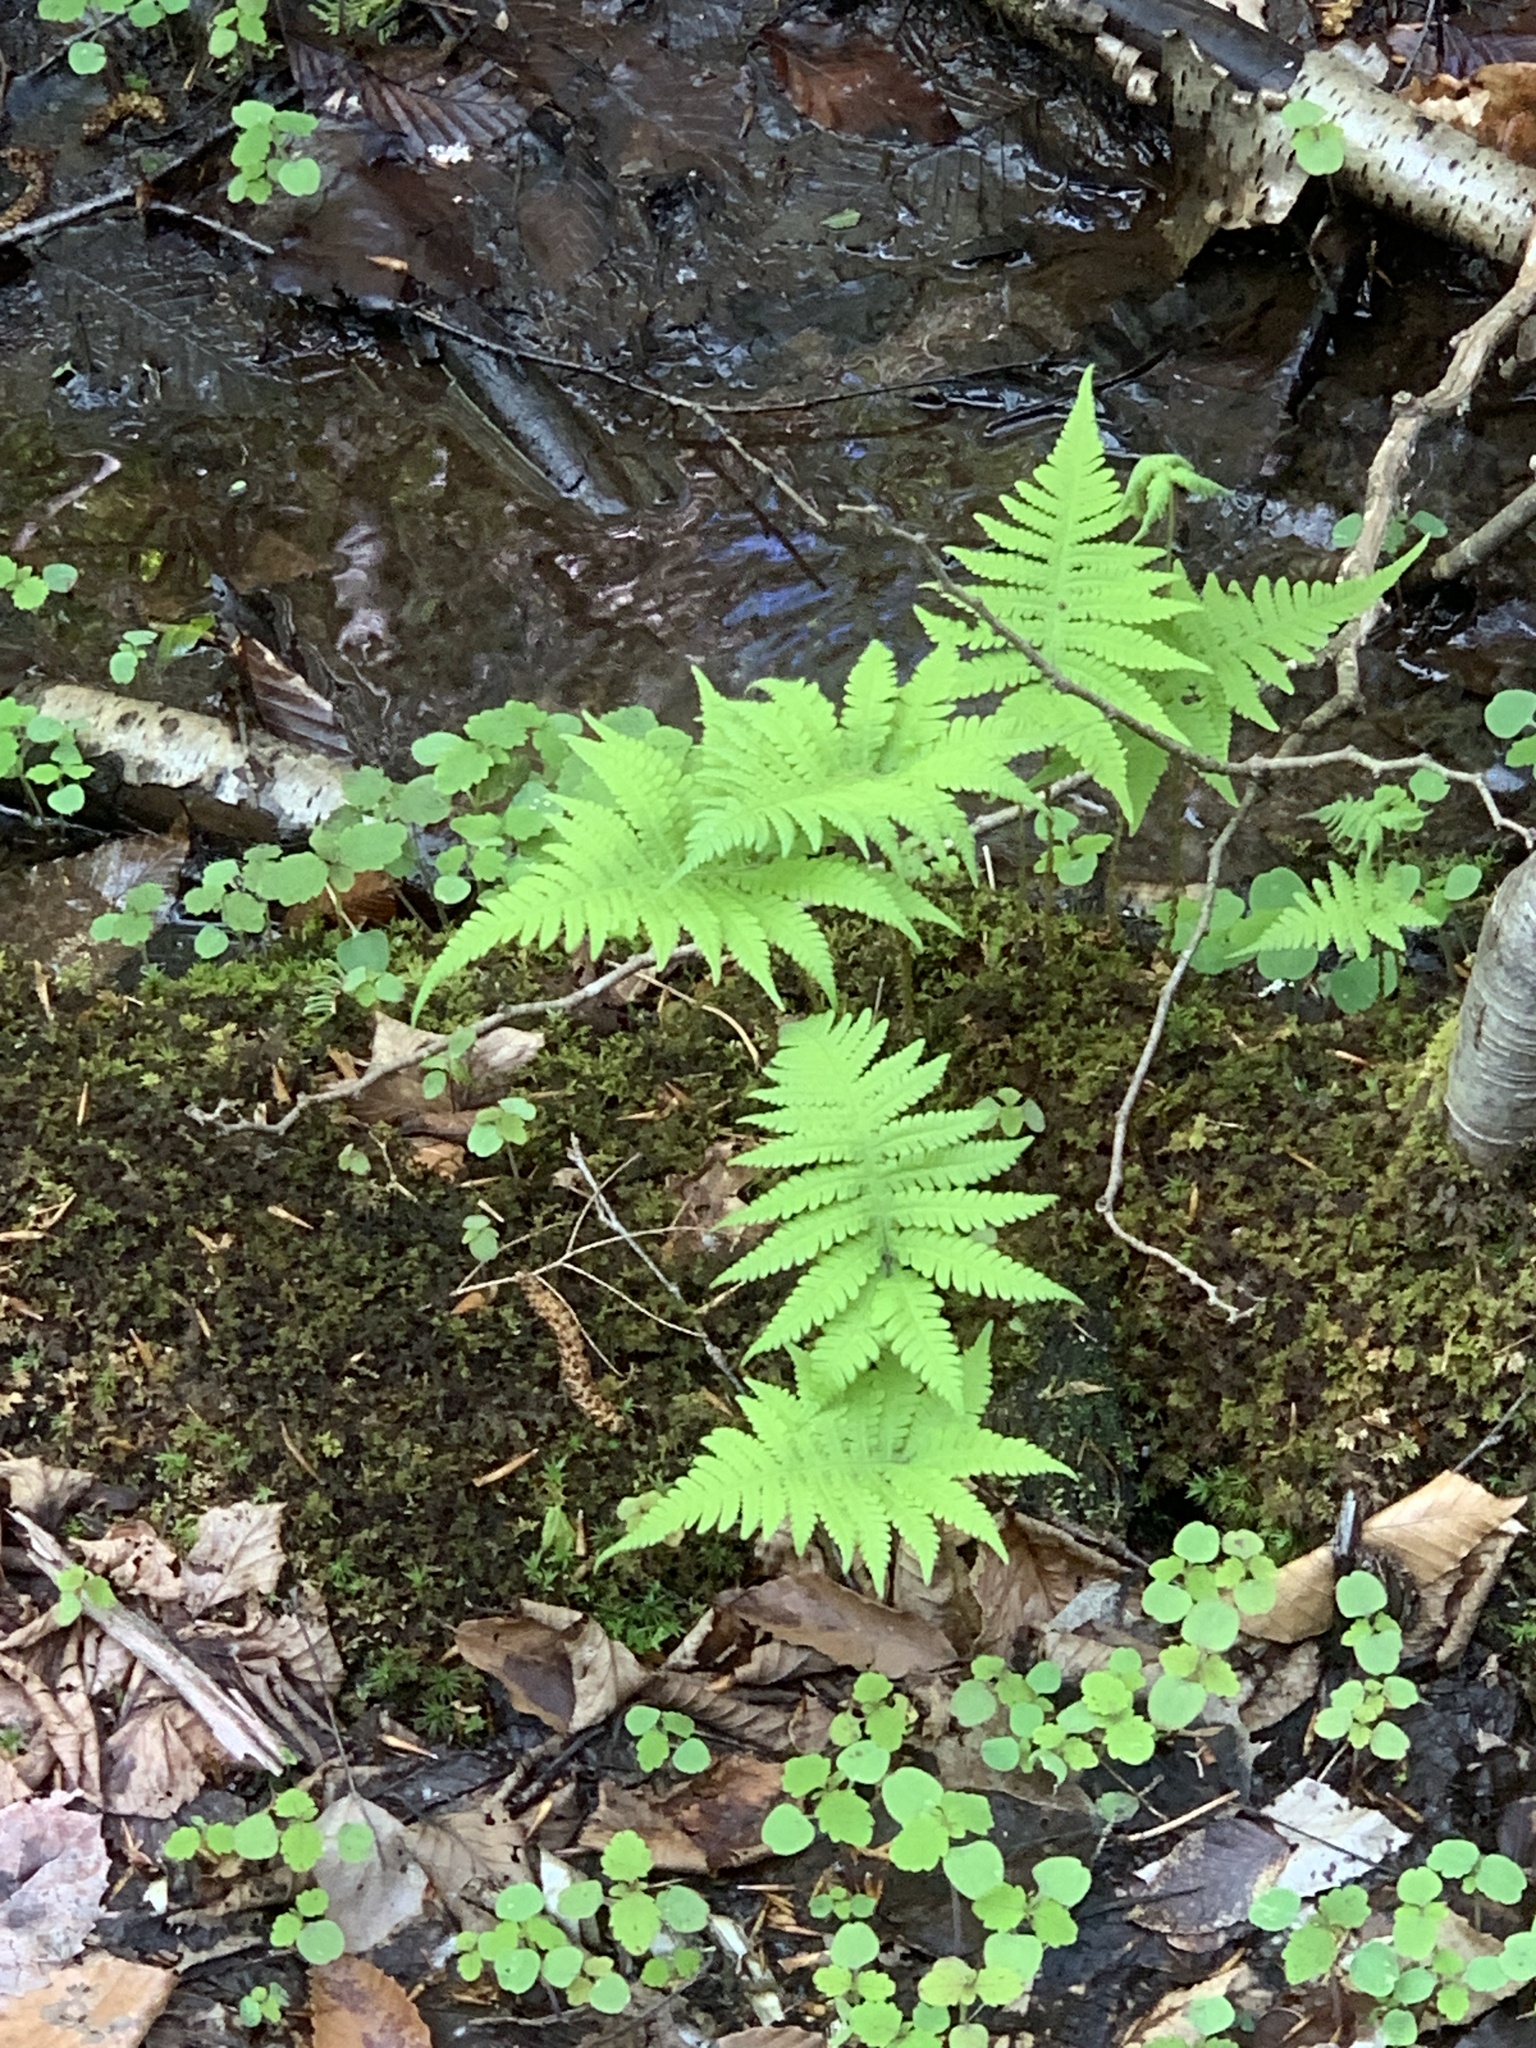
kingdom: Plantae
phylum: Tracheophyta
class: Polypodiopsida
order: Polypodiales
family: Thelypteridaceae
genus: Phegopteris
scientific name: Phegopteris connectilis
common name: Beech fern
